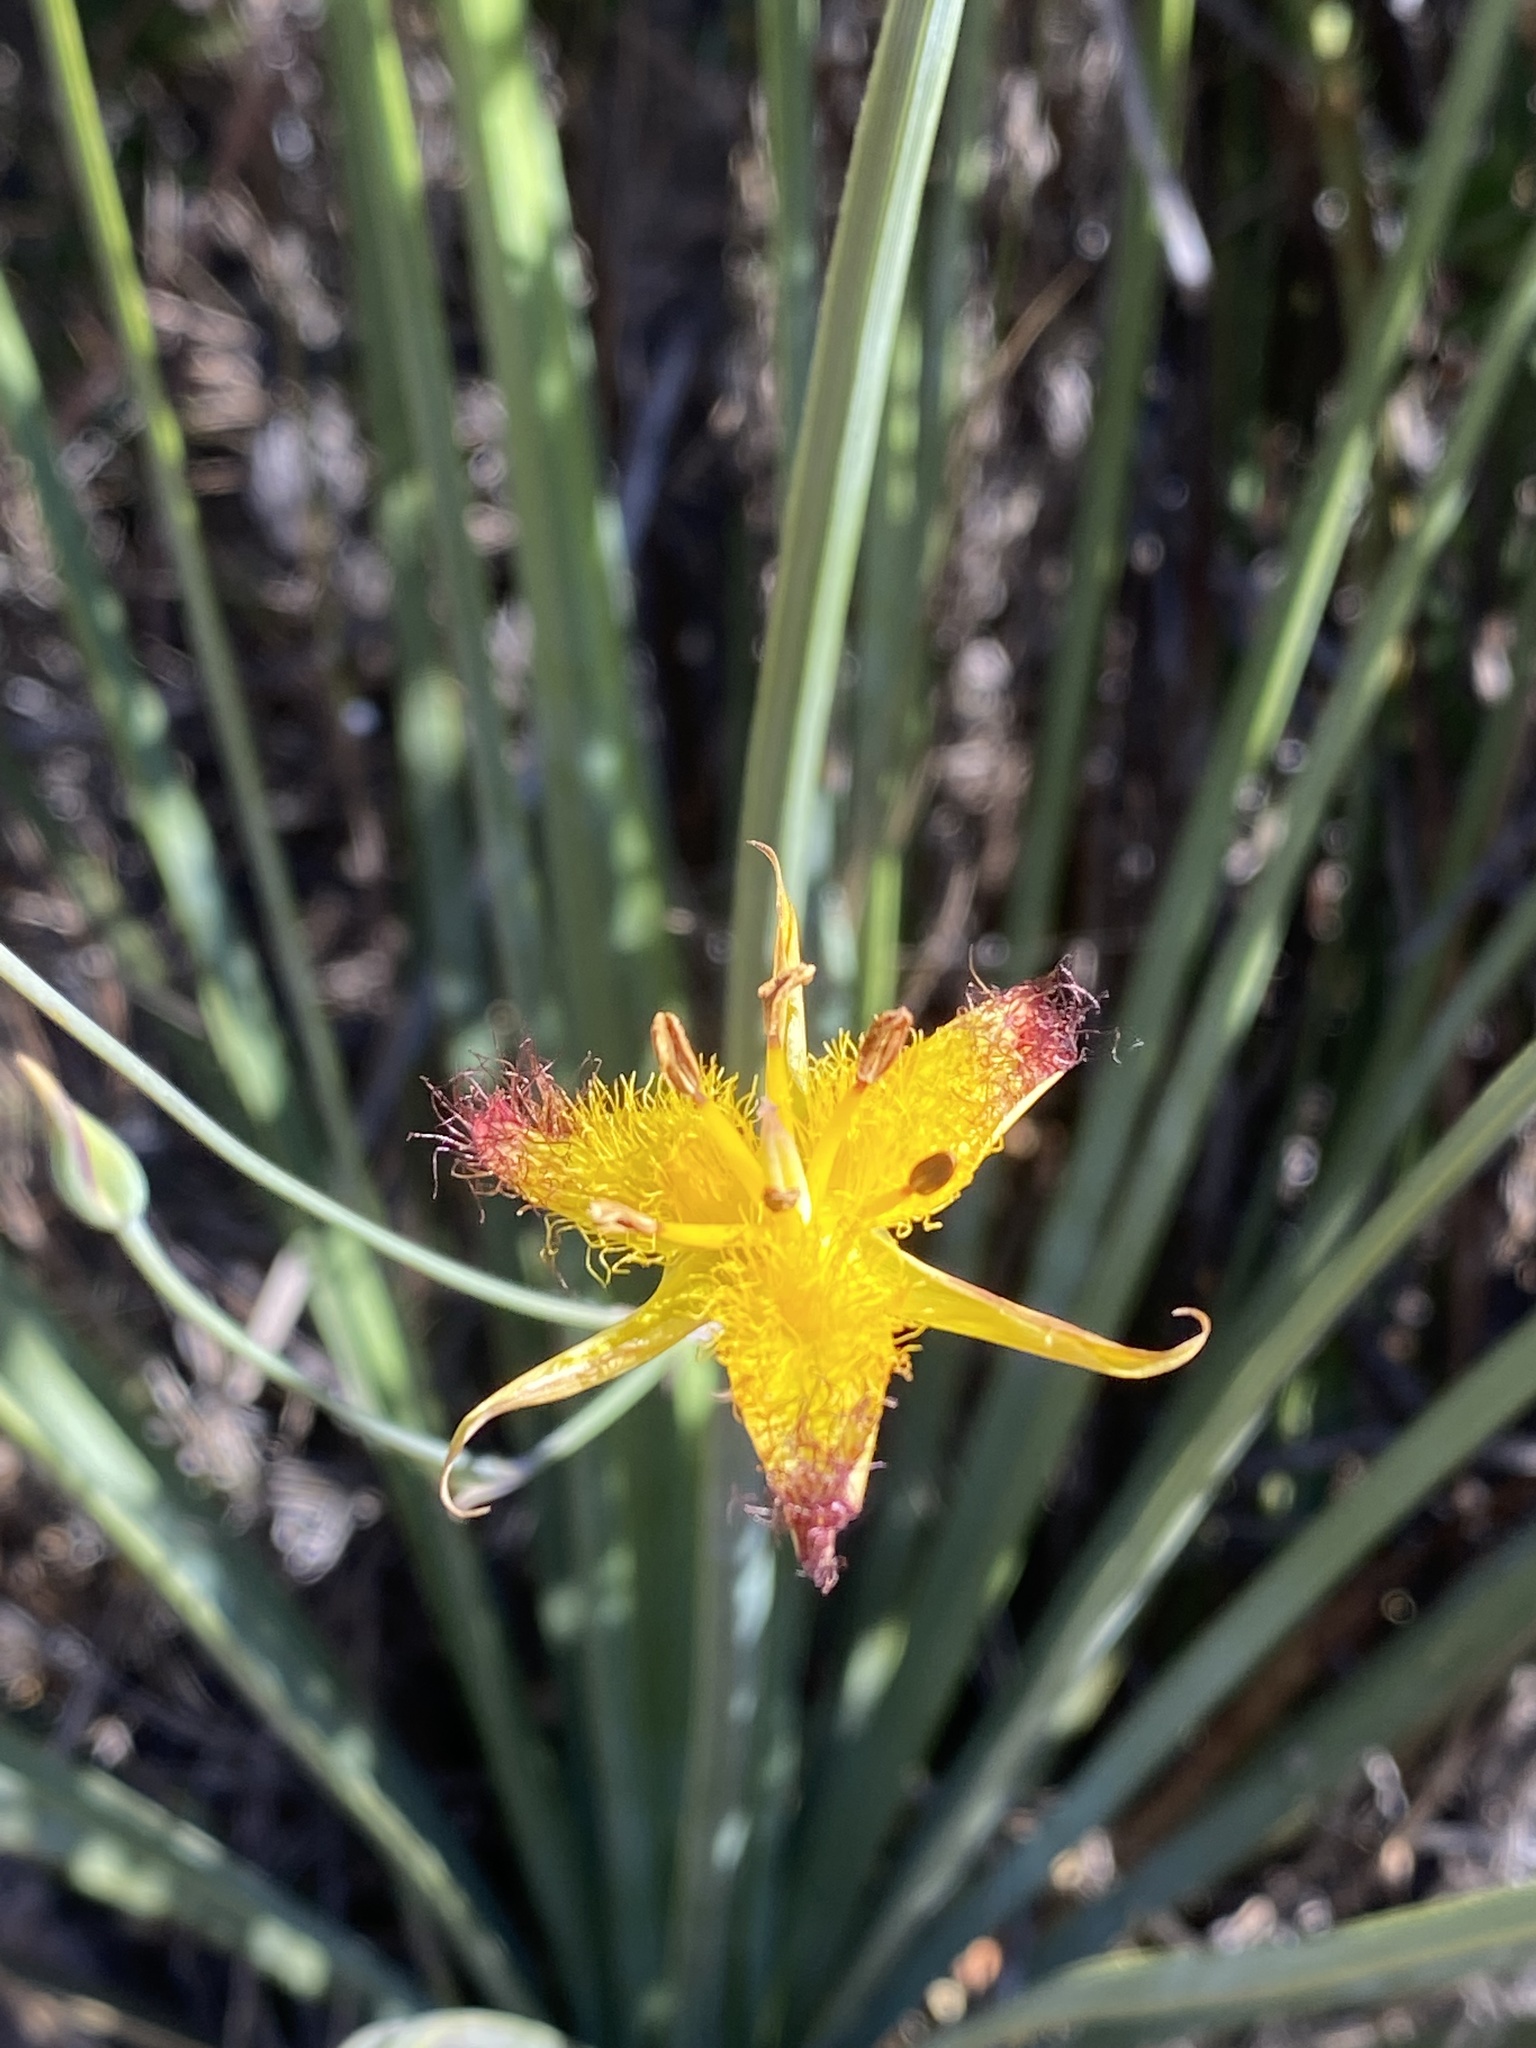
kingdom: Plantae
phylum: Tracheophyta
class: Liliopsida
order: Liliales
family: Liliaceae
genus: Calochortus
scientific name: Calochortus obispoensis
